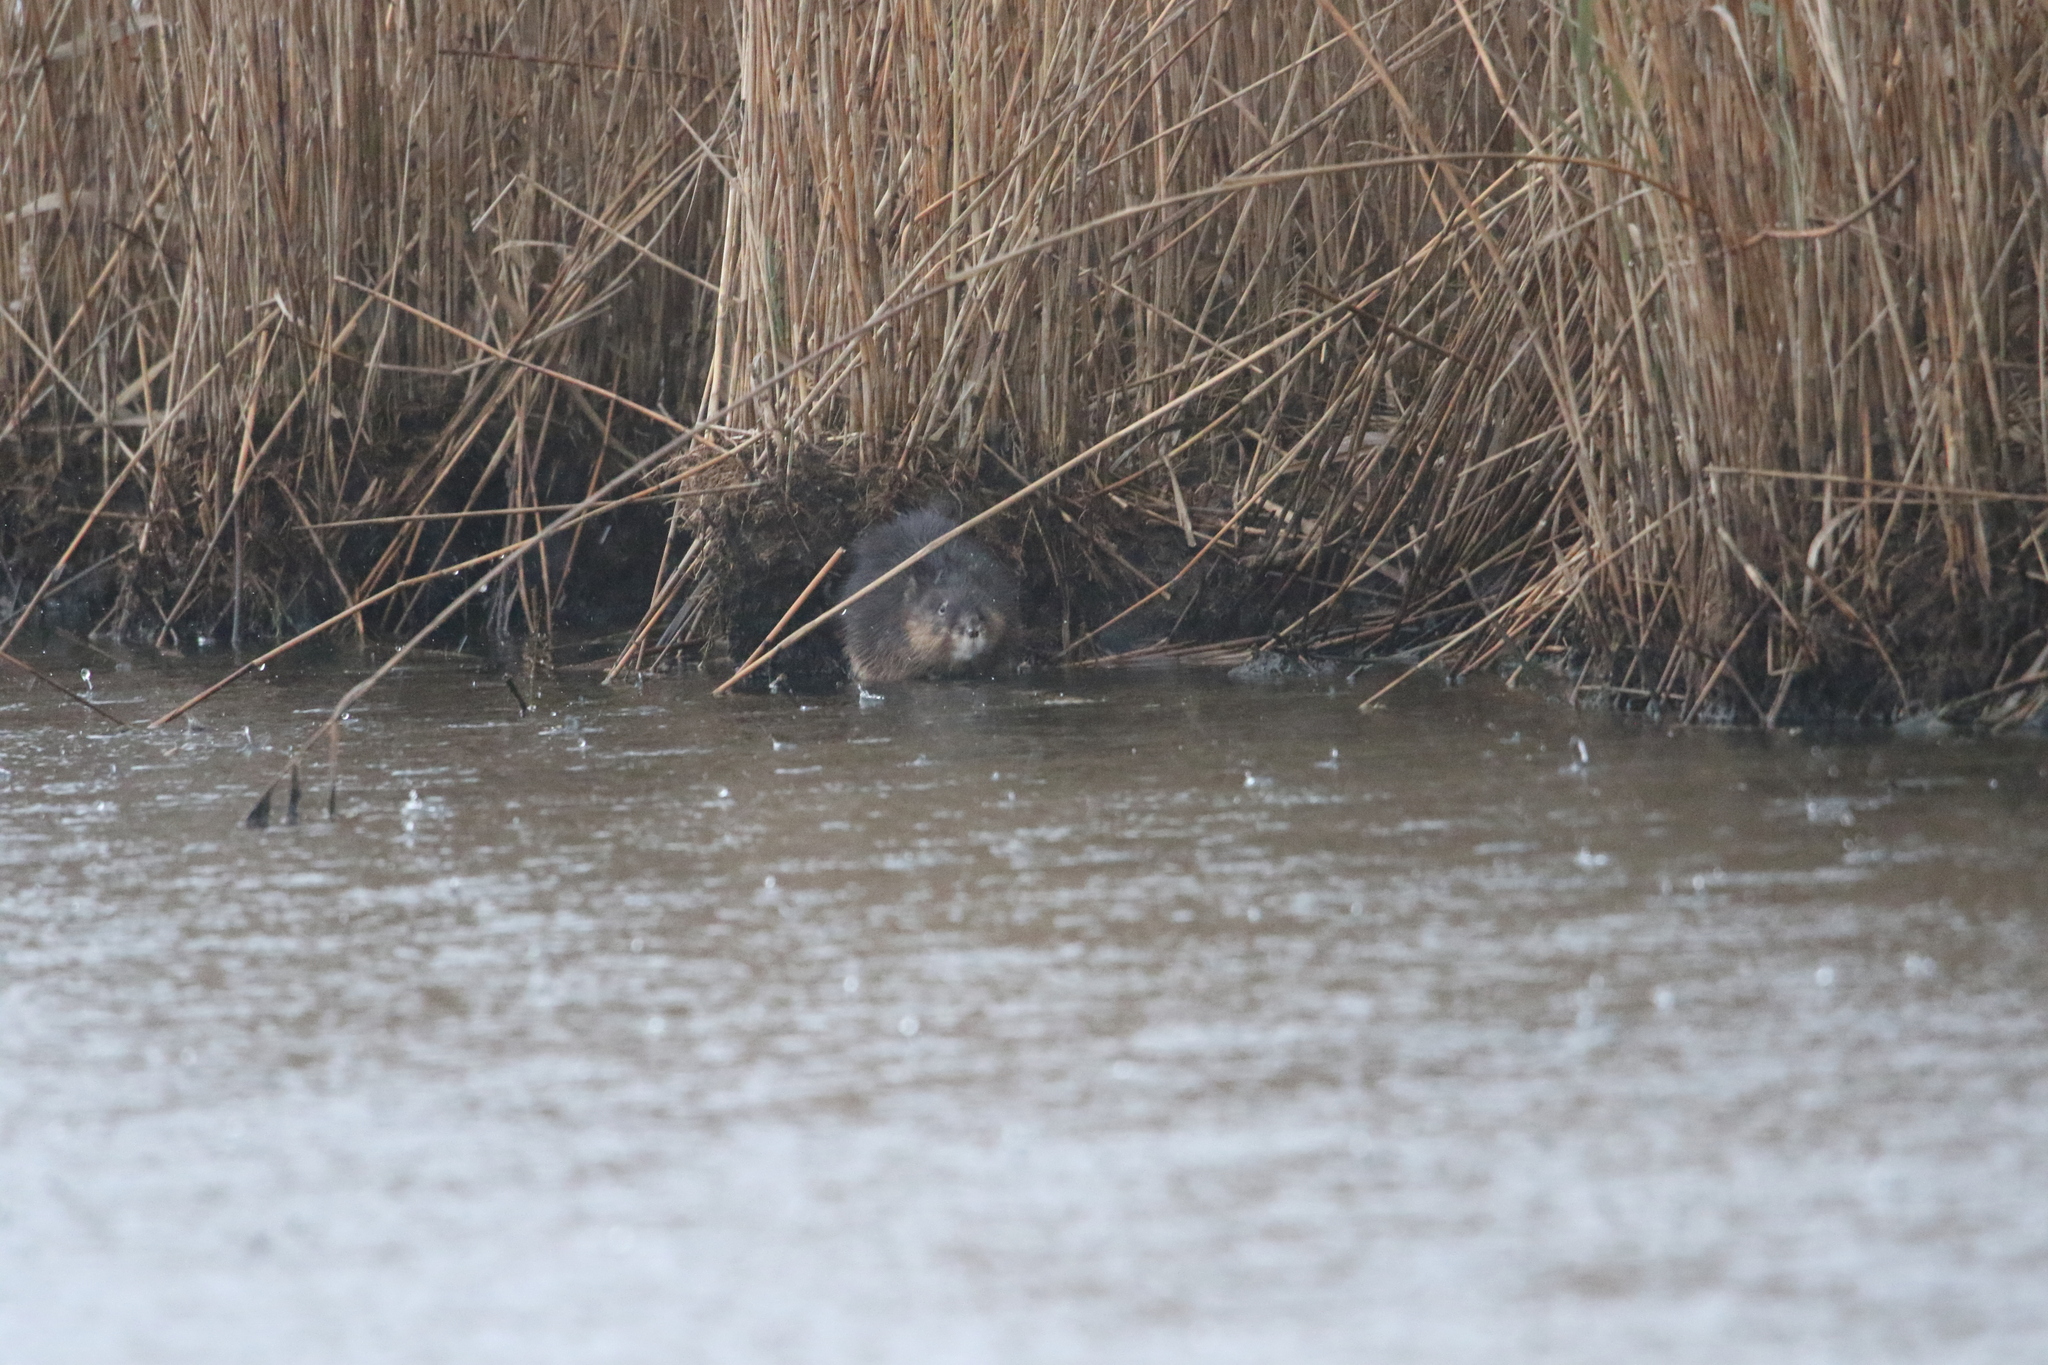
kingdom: Animalia
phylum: Chordata
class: Mammalia
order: Rodentia
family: Cricetidae
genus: Ondatra
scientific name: Ondatra zibethicus
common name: Muskrat
